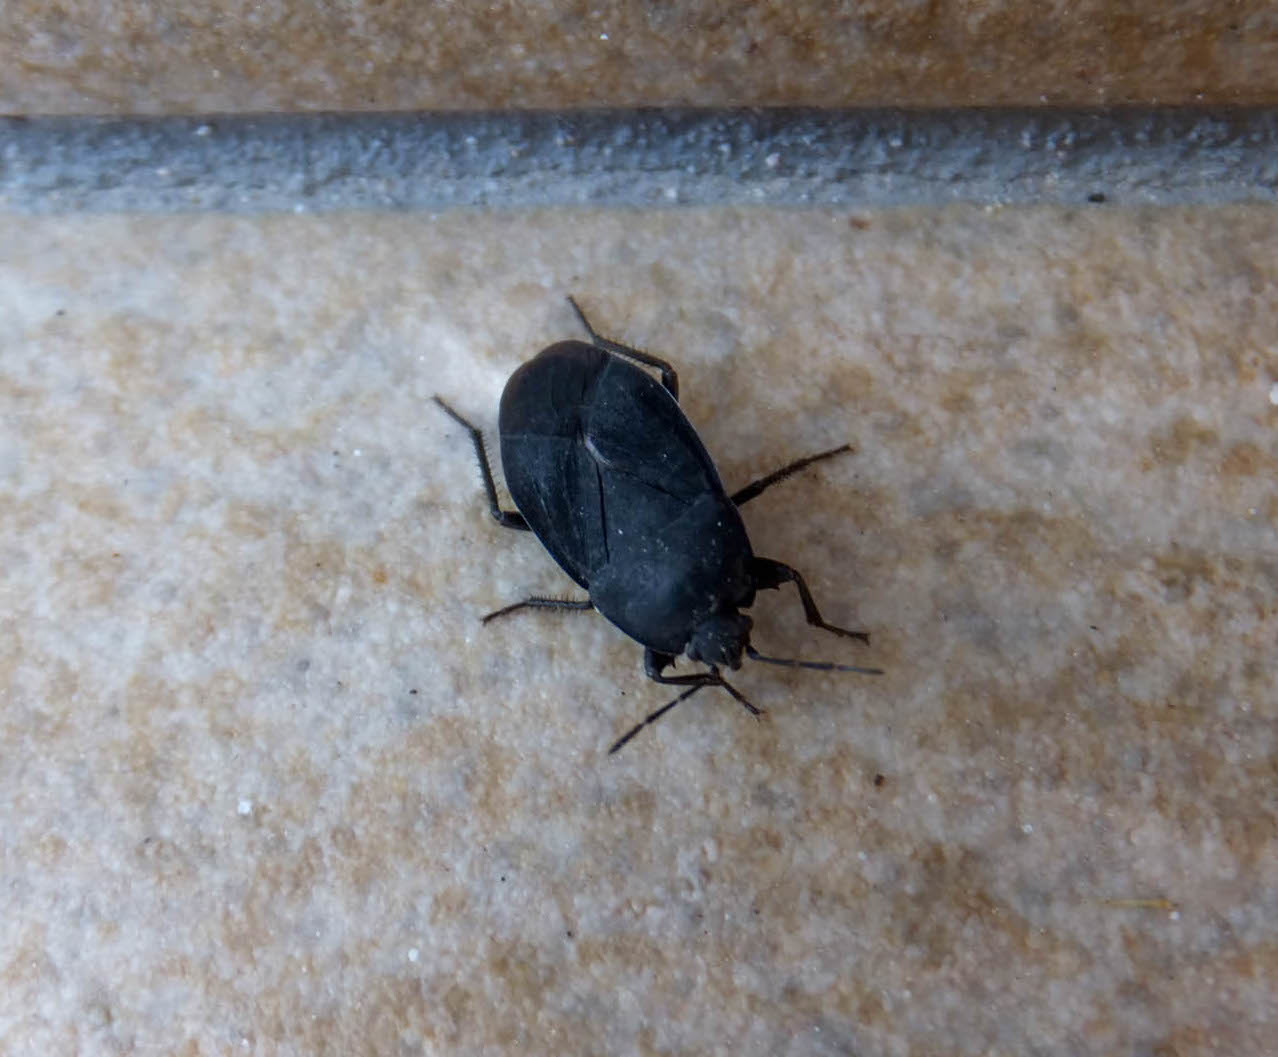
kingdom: Animalia
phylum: Arthropoda
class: Insecta
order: Hemiptera
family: Rhyparochromidae
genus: Aellopus
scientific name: Aellopus atratus
